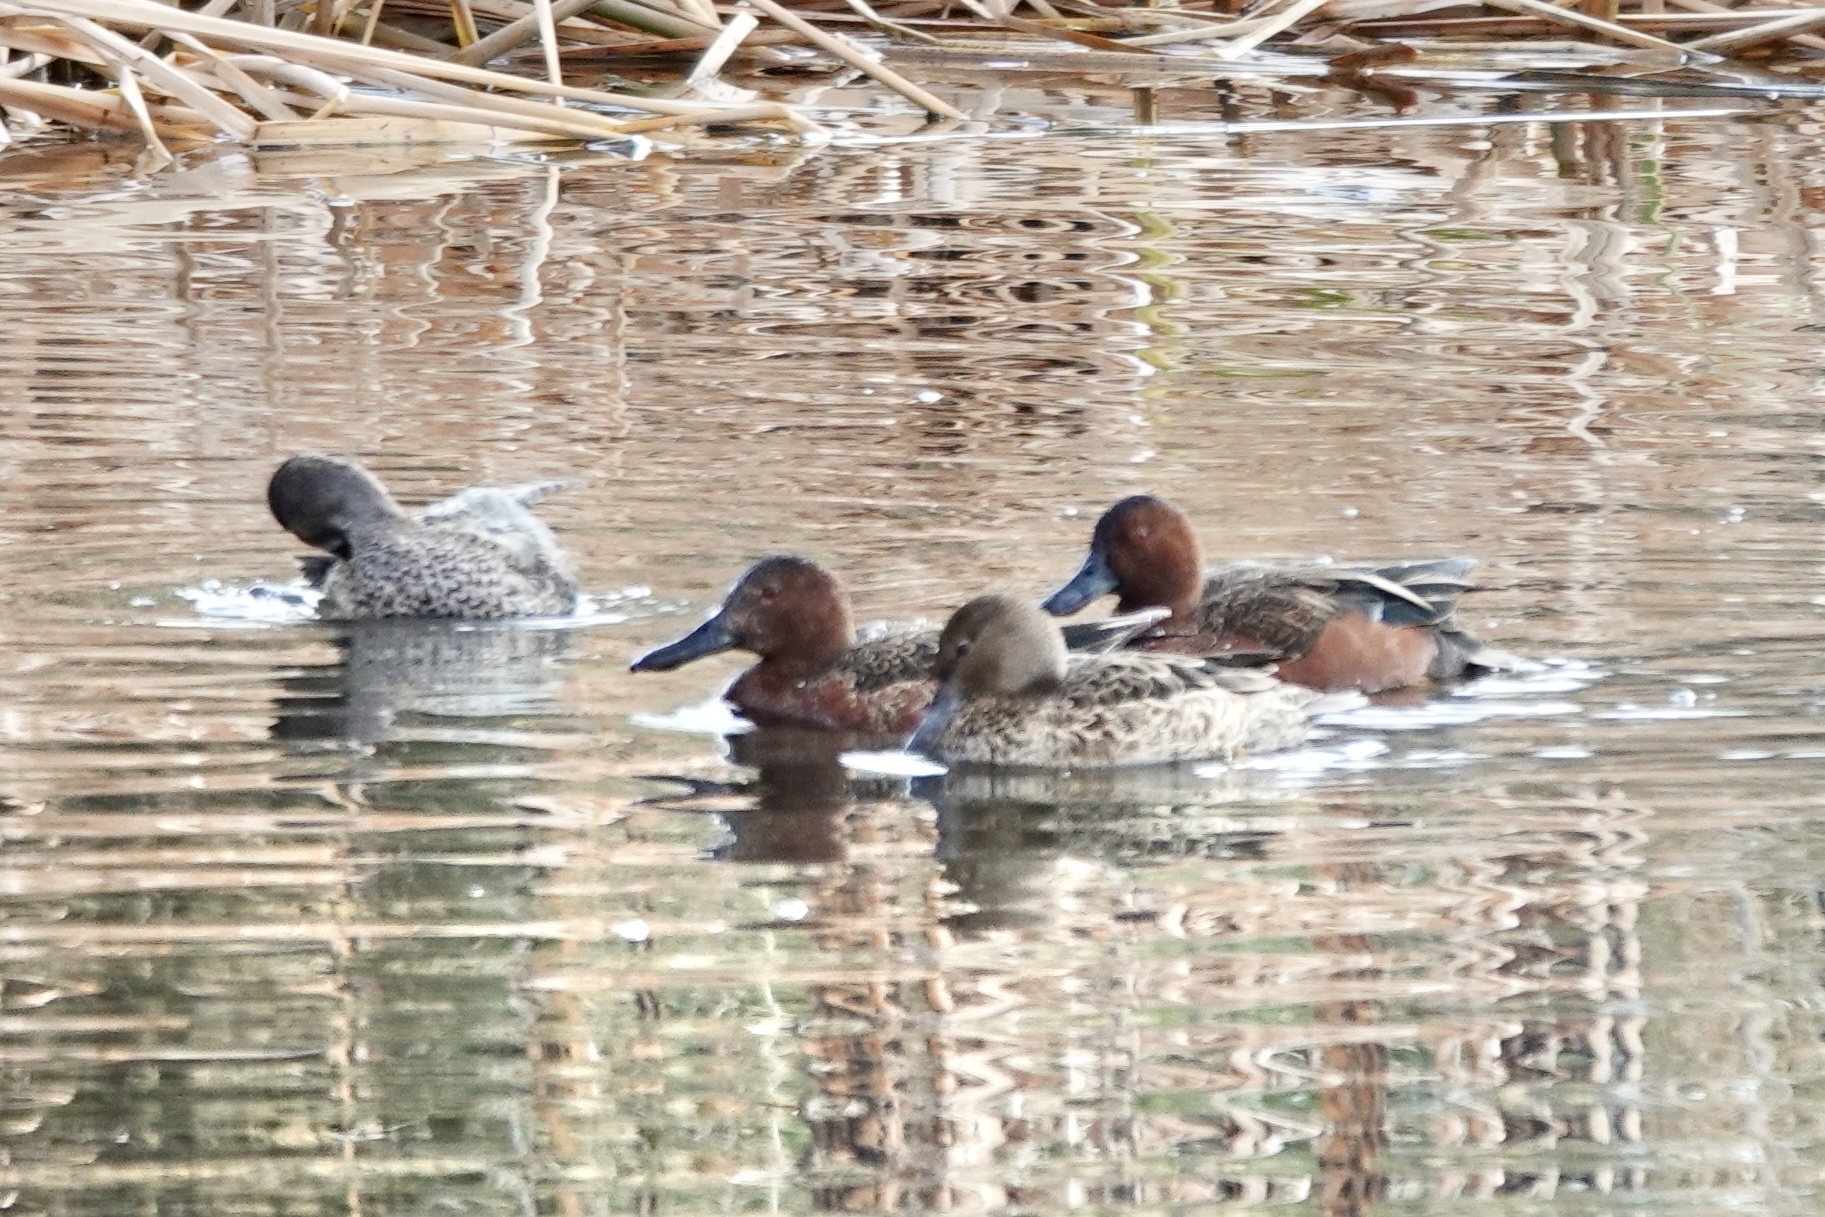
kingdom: Animalia
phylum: Chordata
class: Aves
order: Anseriformes
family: Anatidae
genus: Spatula
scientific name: Spatula cyanoptera
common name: Cinnamon teal
